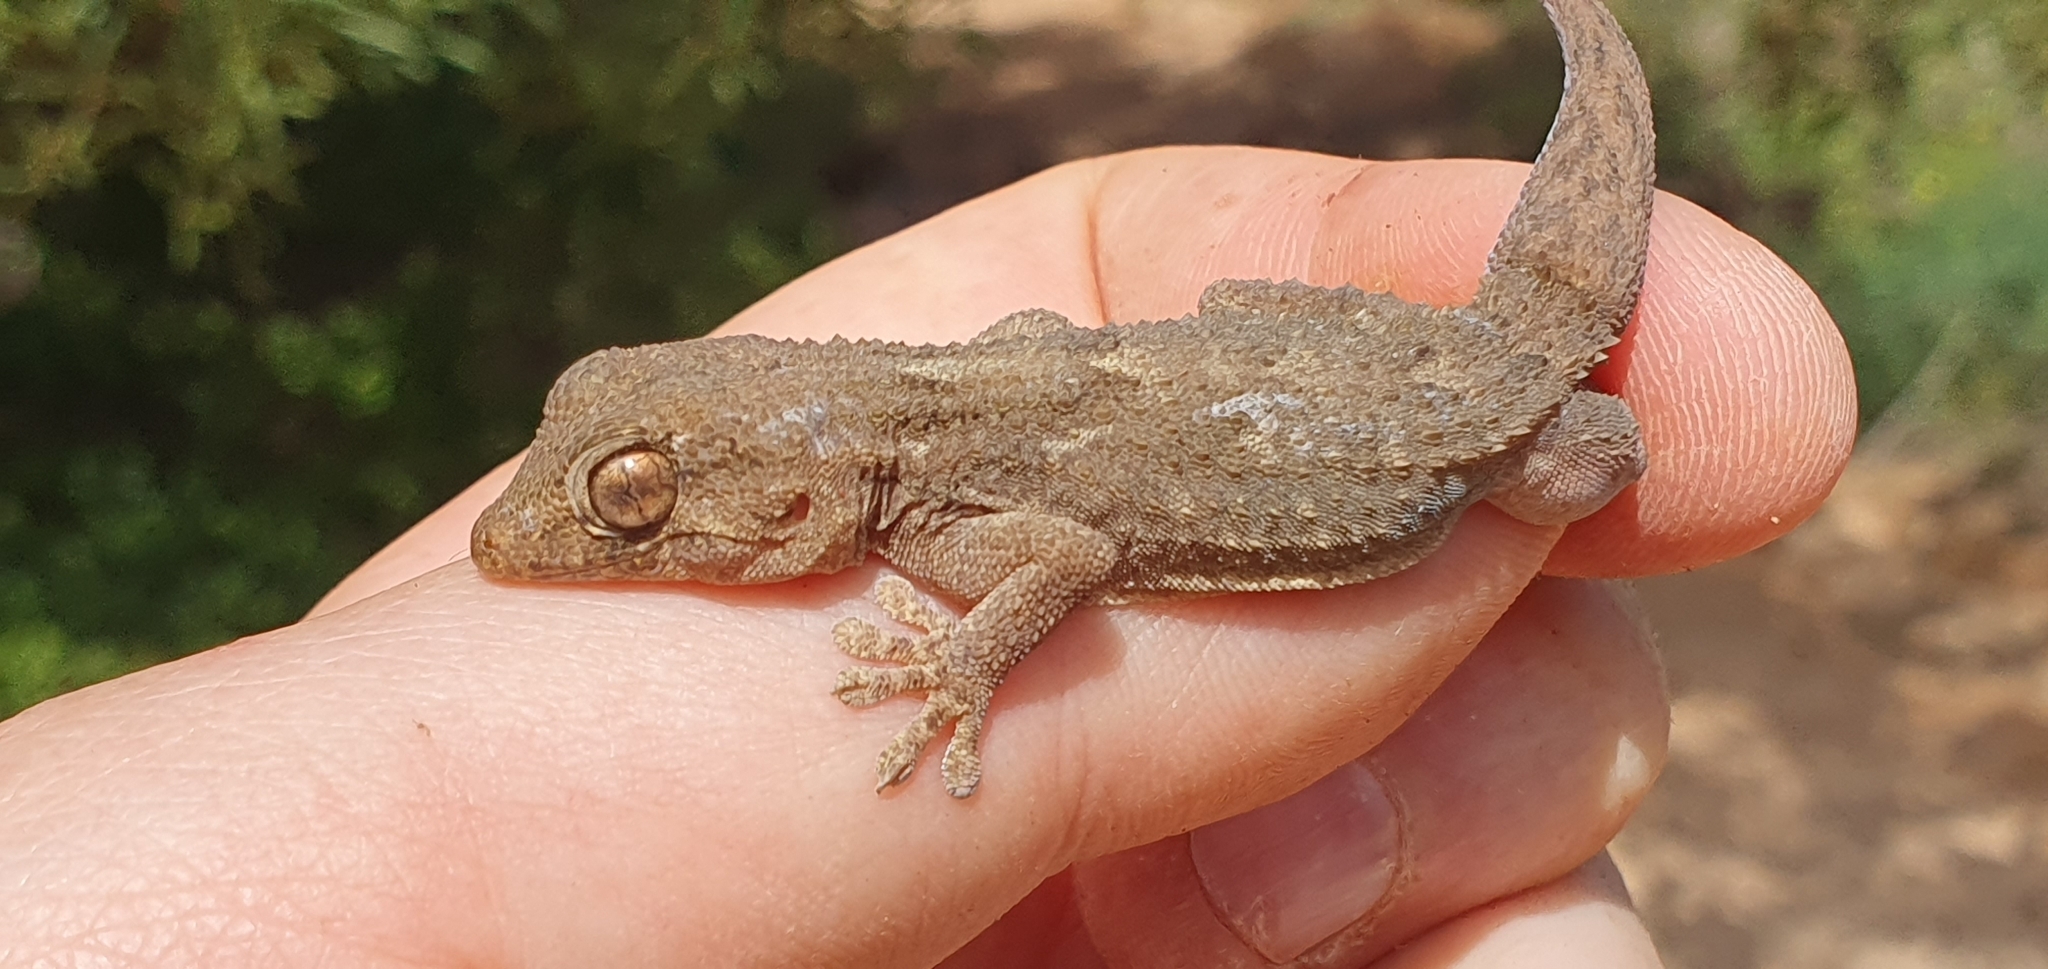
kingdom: Animalia
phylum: Chordata
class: Squamata
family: Phyllodactylidae
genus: Tarentola
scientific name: Tarentola angustimentalis
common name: East canary gecko
